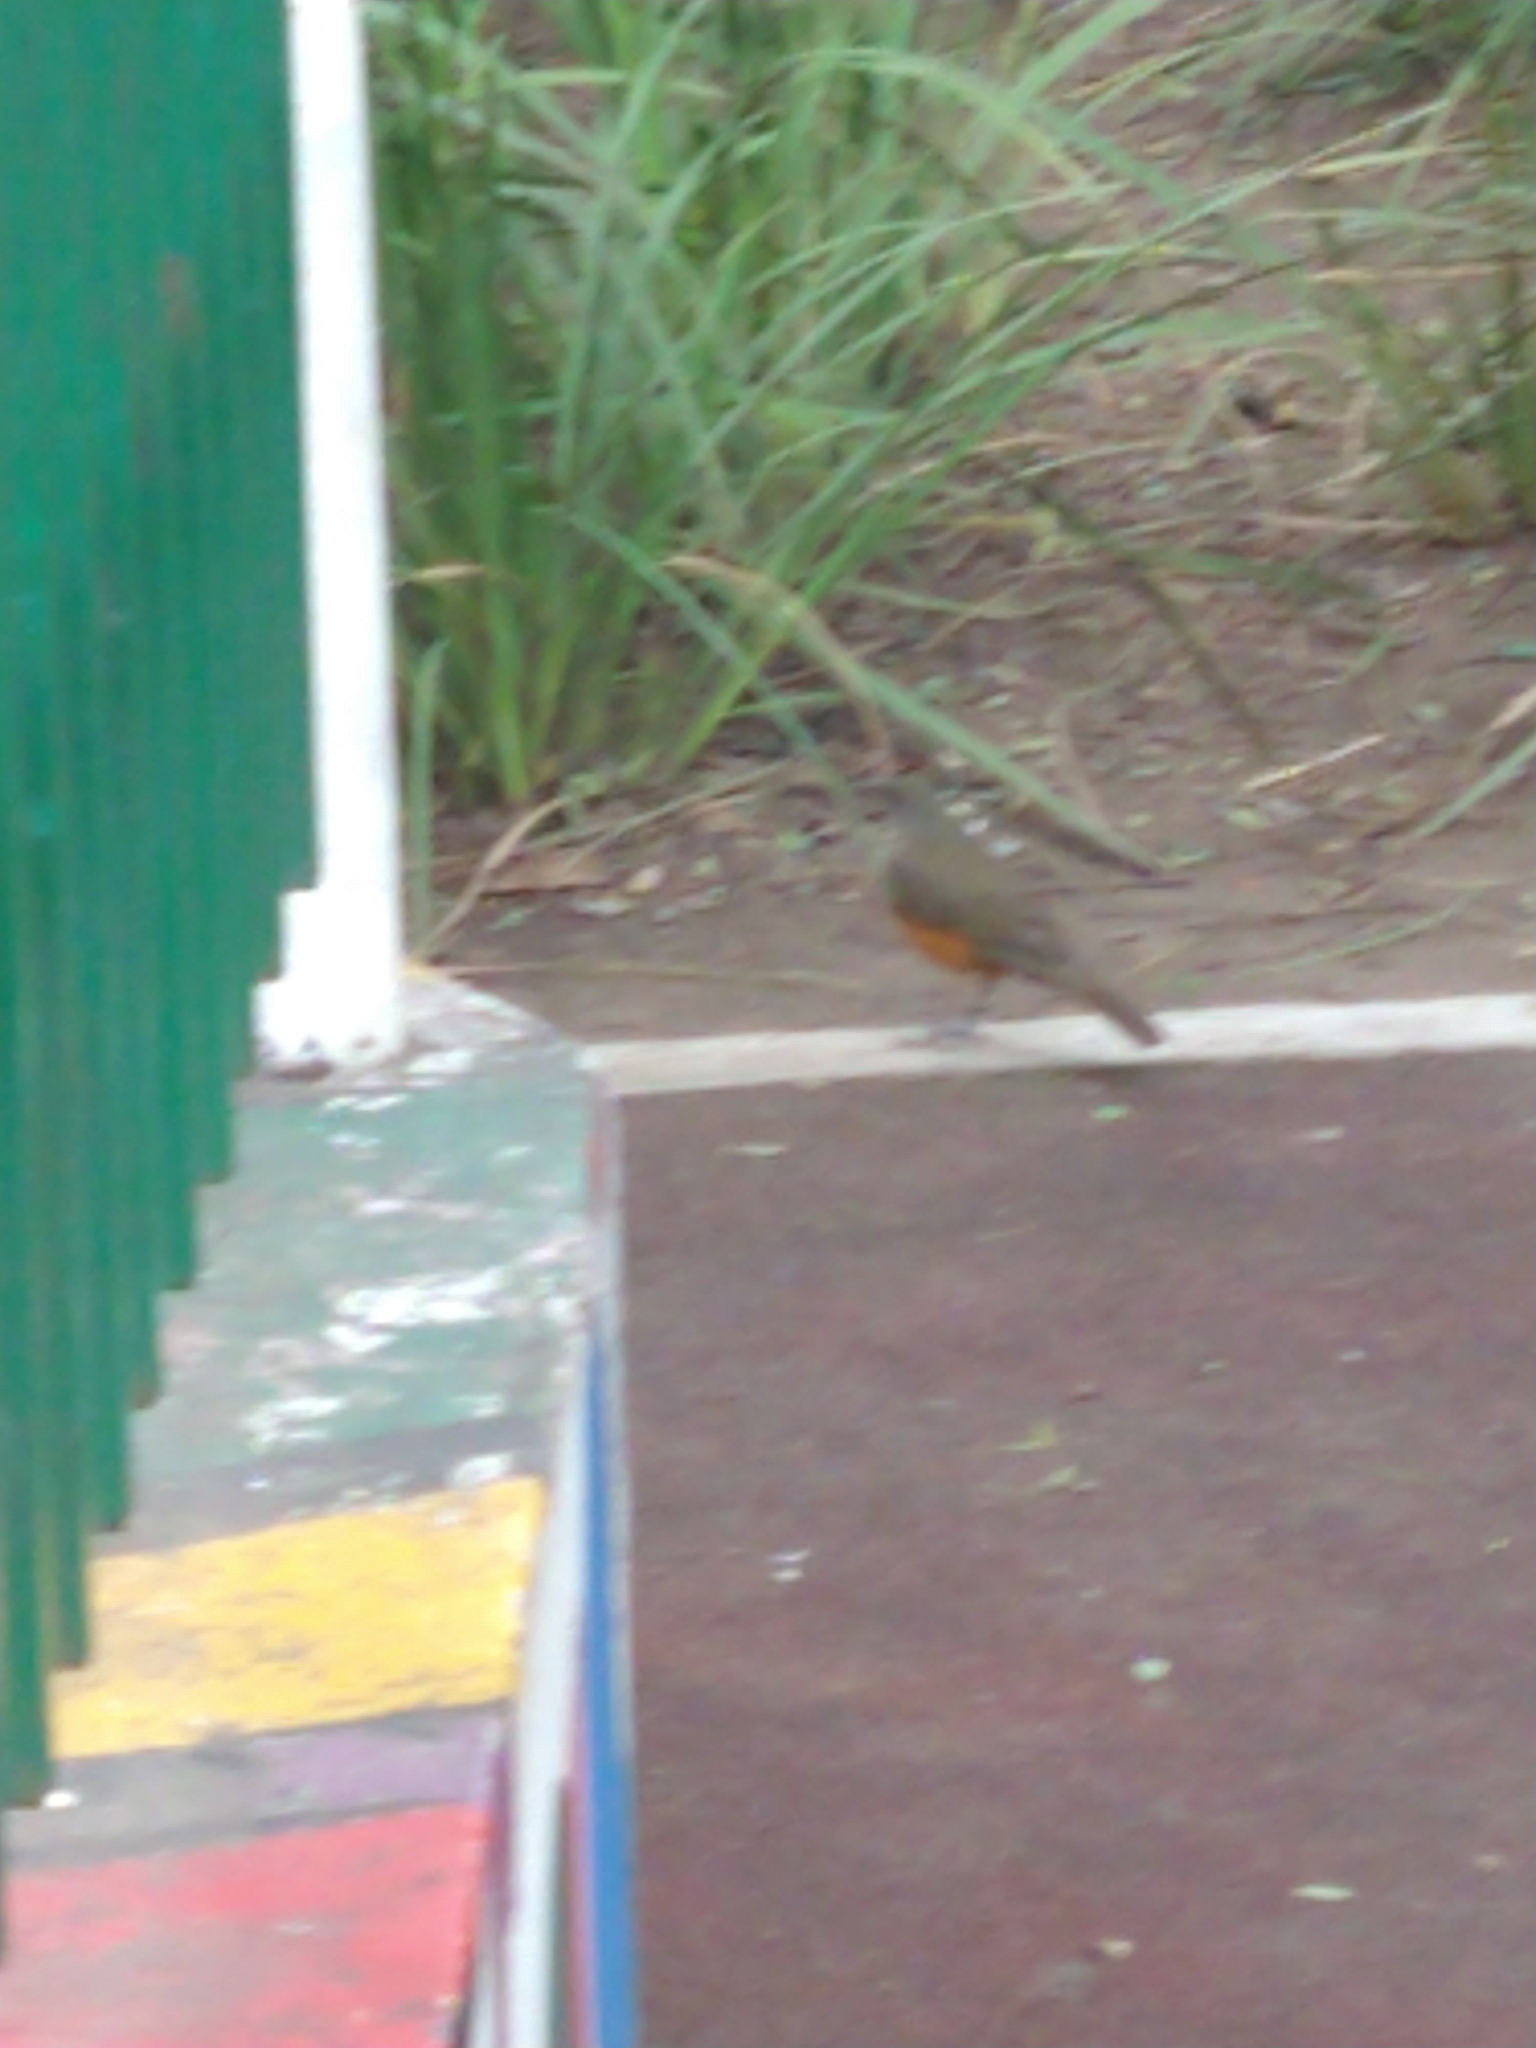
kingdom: Animalia
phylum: Chordata
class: Aves
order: Passeriformes
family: Turdidae
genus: Turdus
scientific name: Turdus rufiventris
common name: Rufous-bellied thrush
